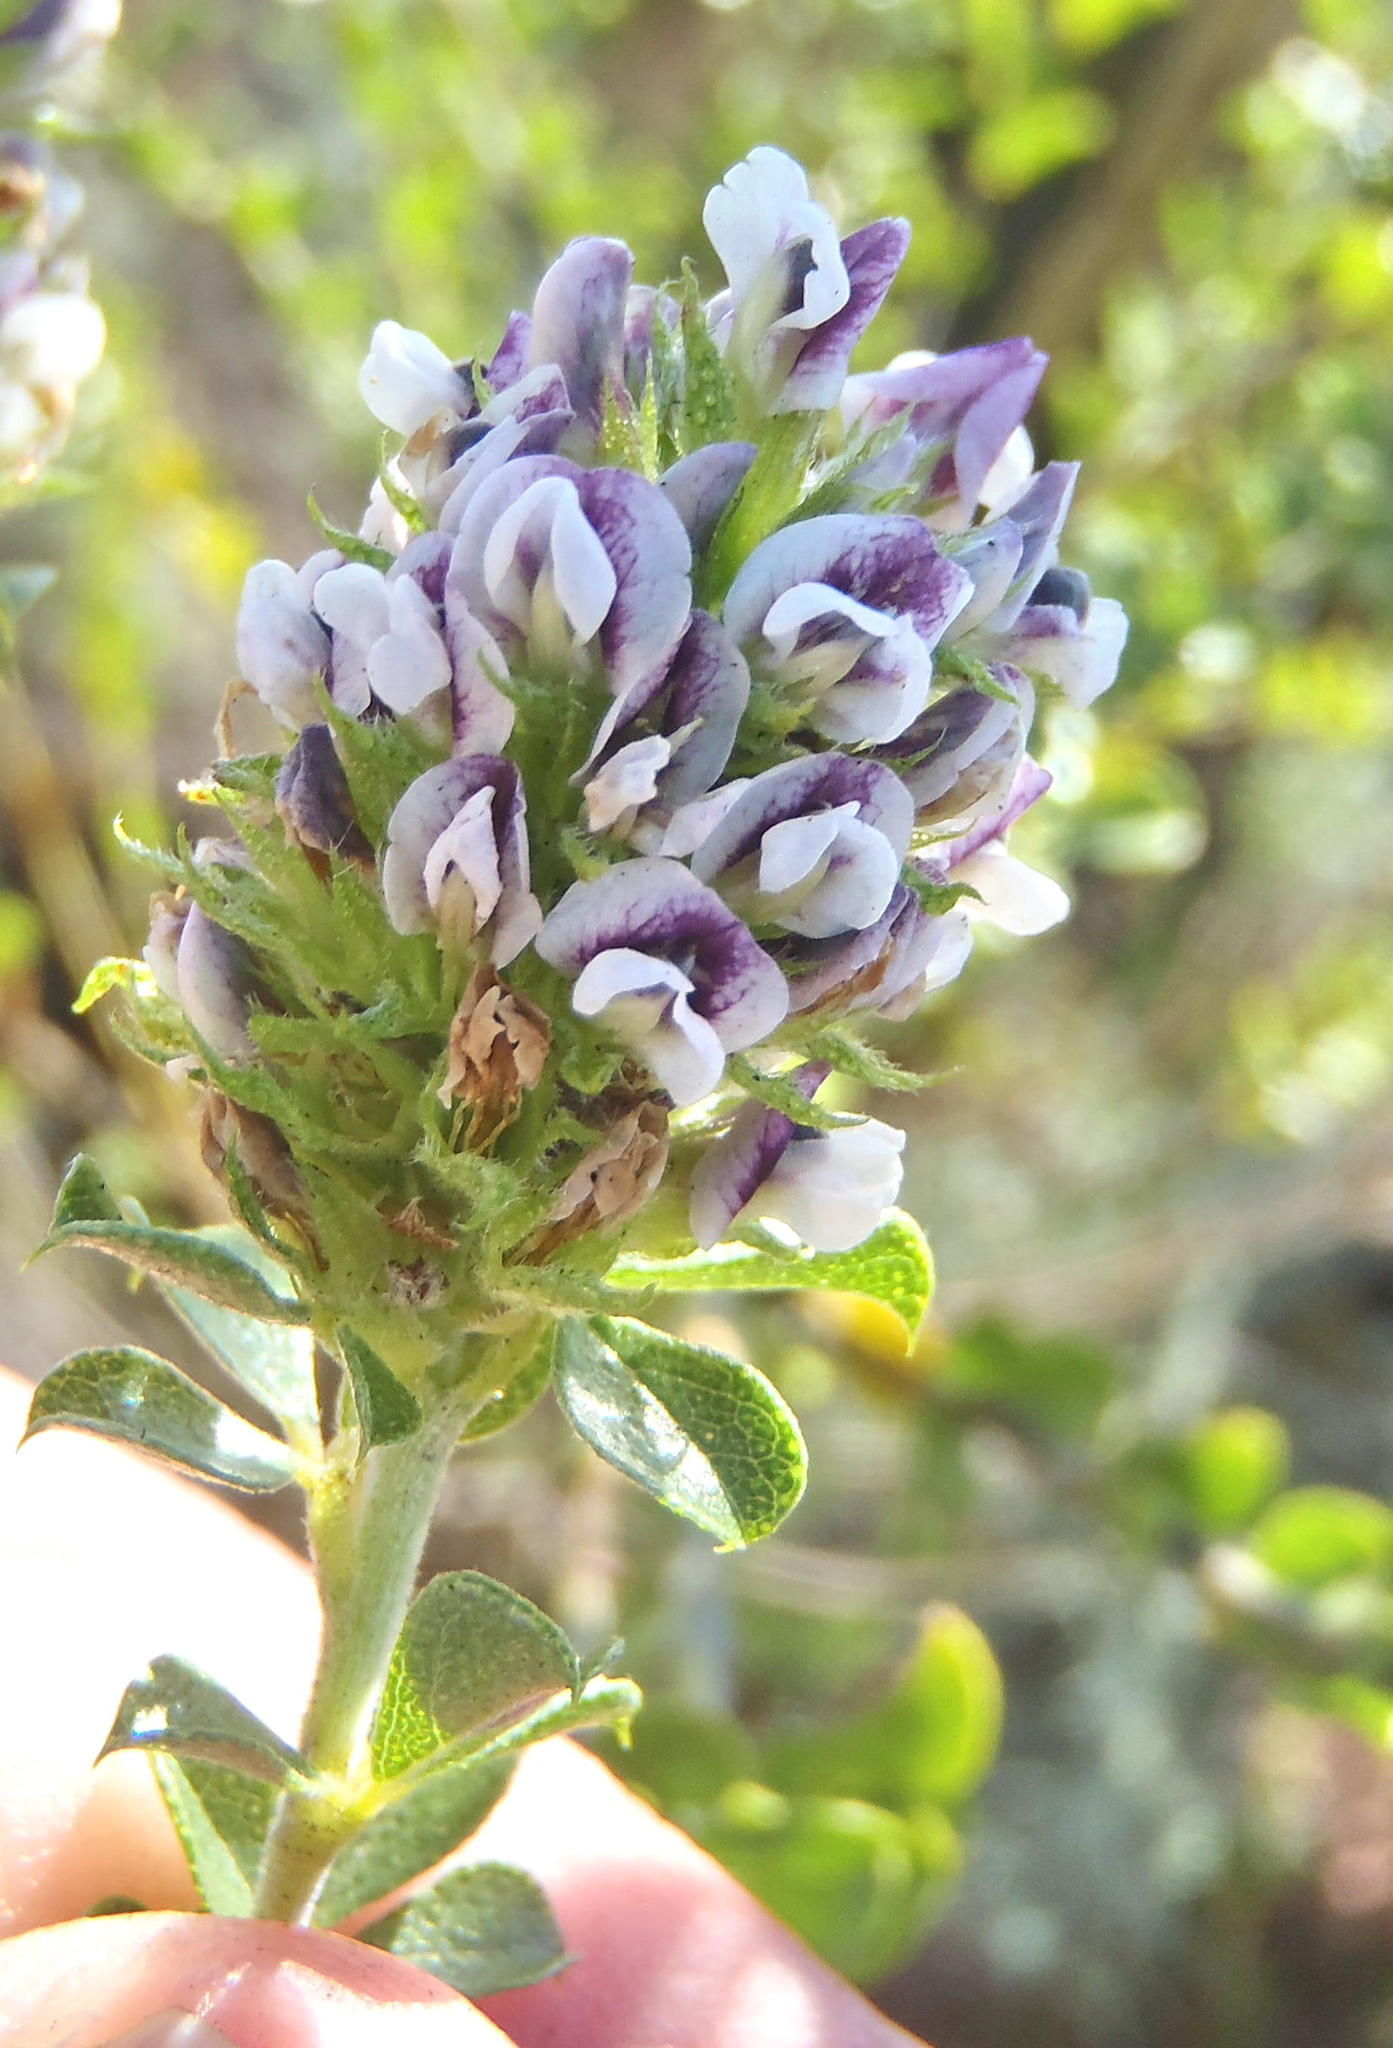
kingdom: Plantae
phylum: Tracheophyta
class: Magnoliopsida
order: Fabales
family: Fabaceae
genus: Psoralea
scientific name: Psoralea stachyera
